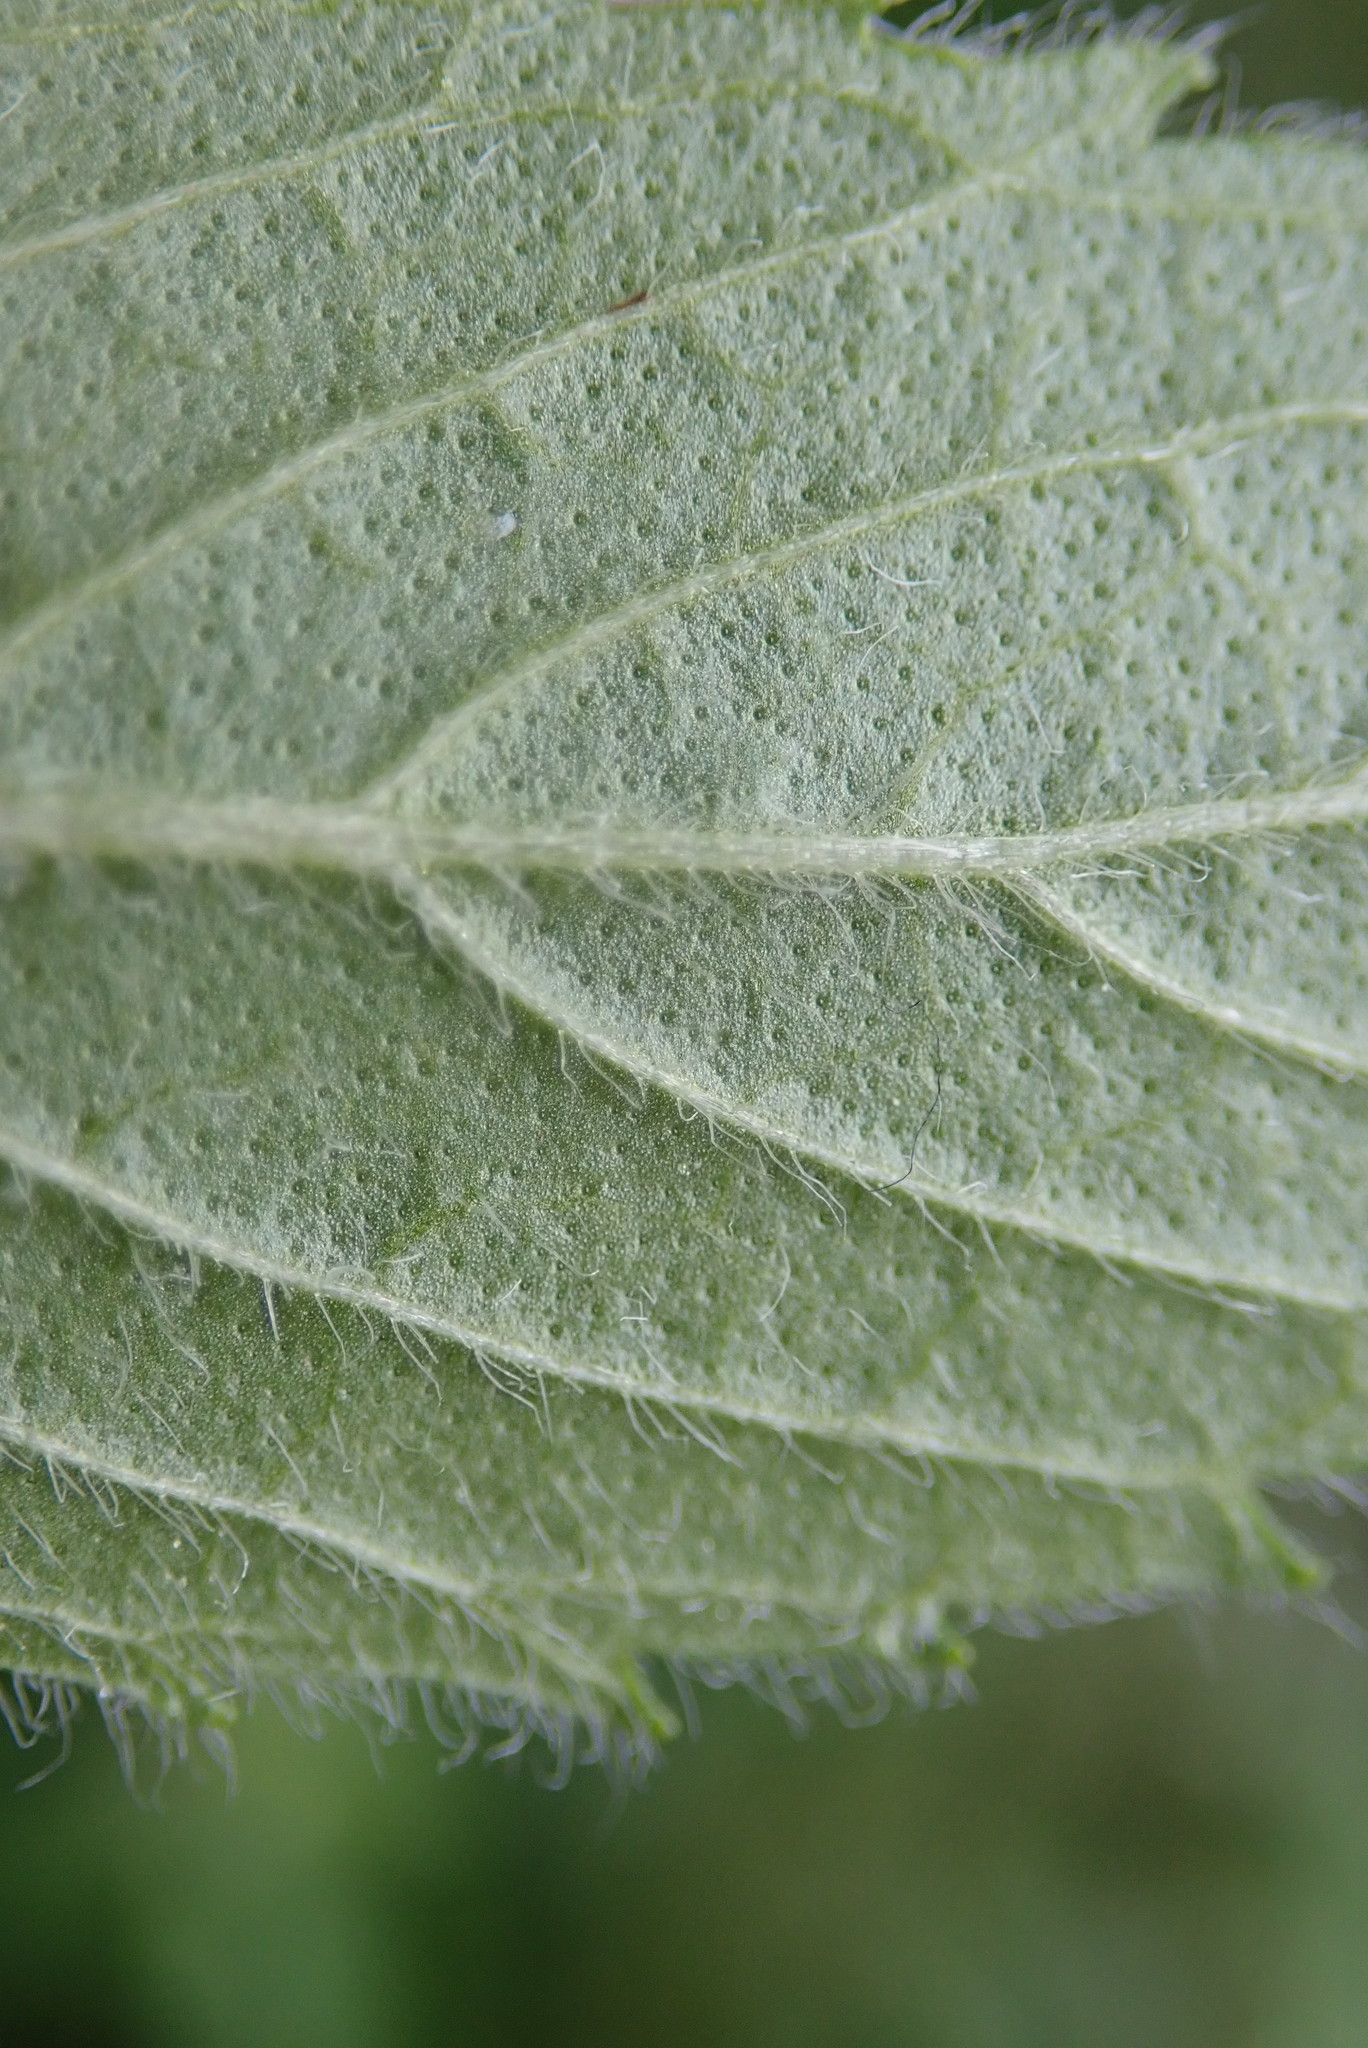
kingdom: Plantae
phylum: Tracheophyta
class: Magnoliopsida
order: Lamiales
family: Lamiaceae
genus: Mentha
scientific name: Mentha canadensis
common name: American corn mint
